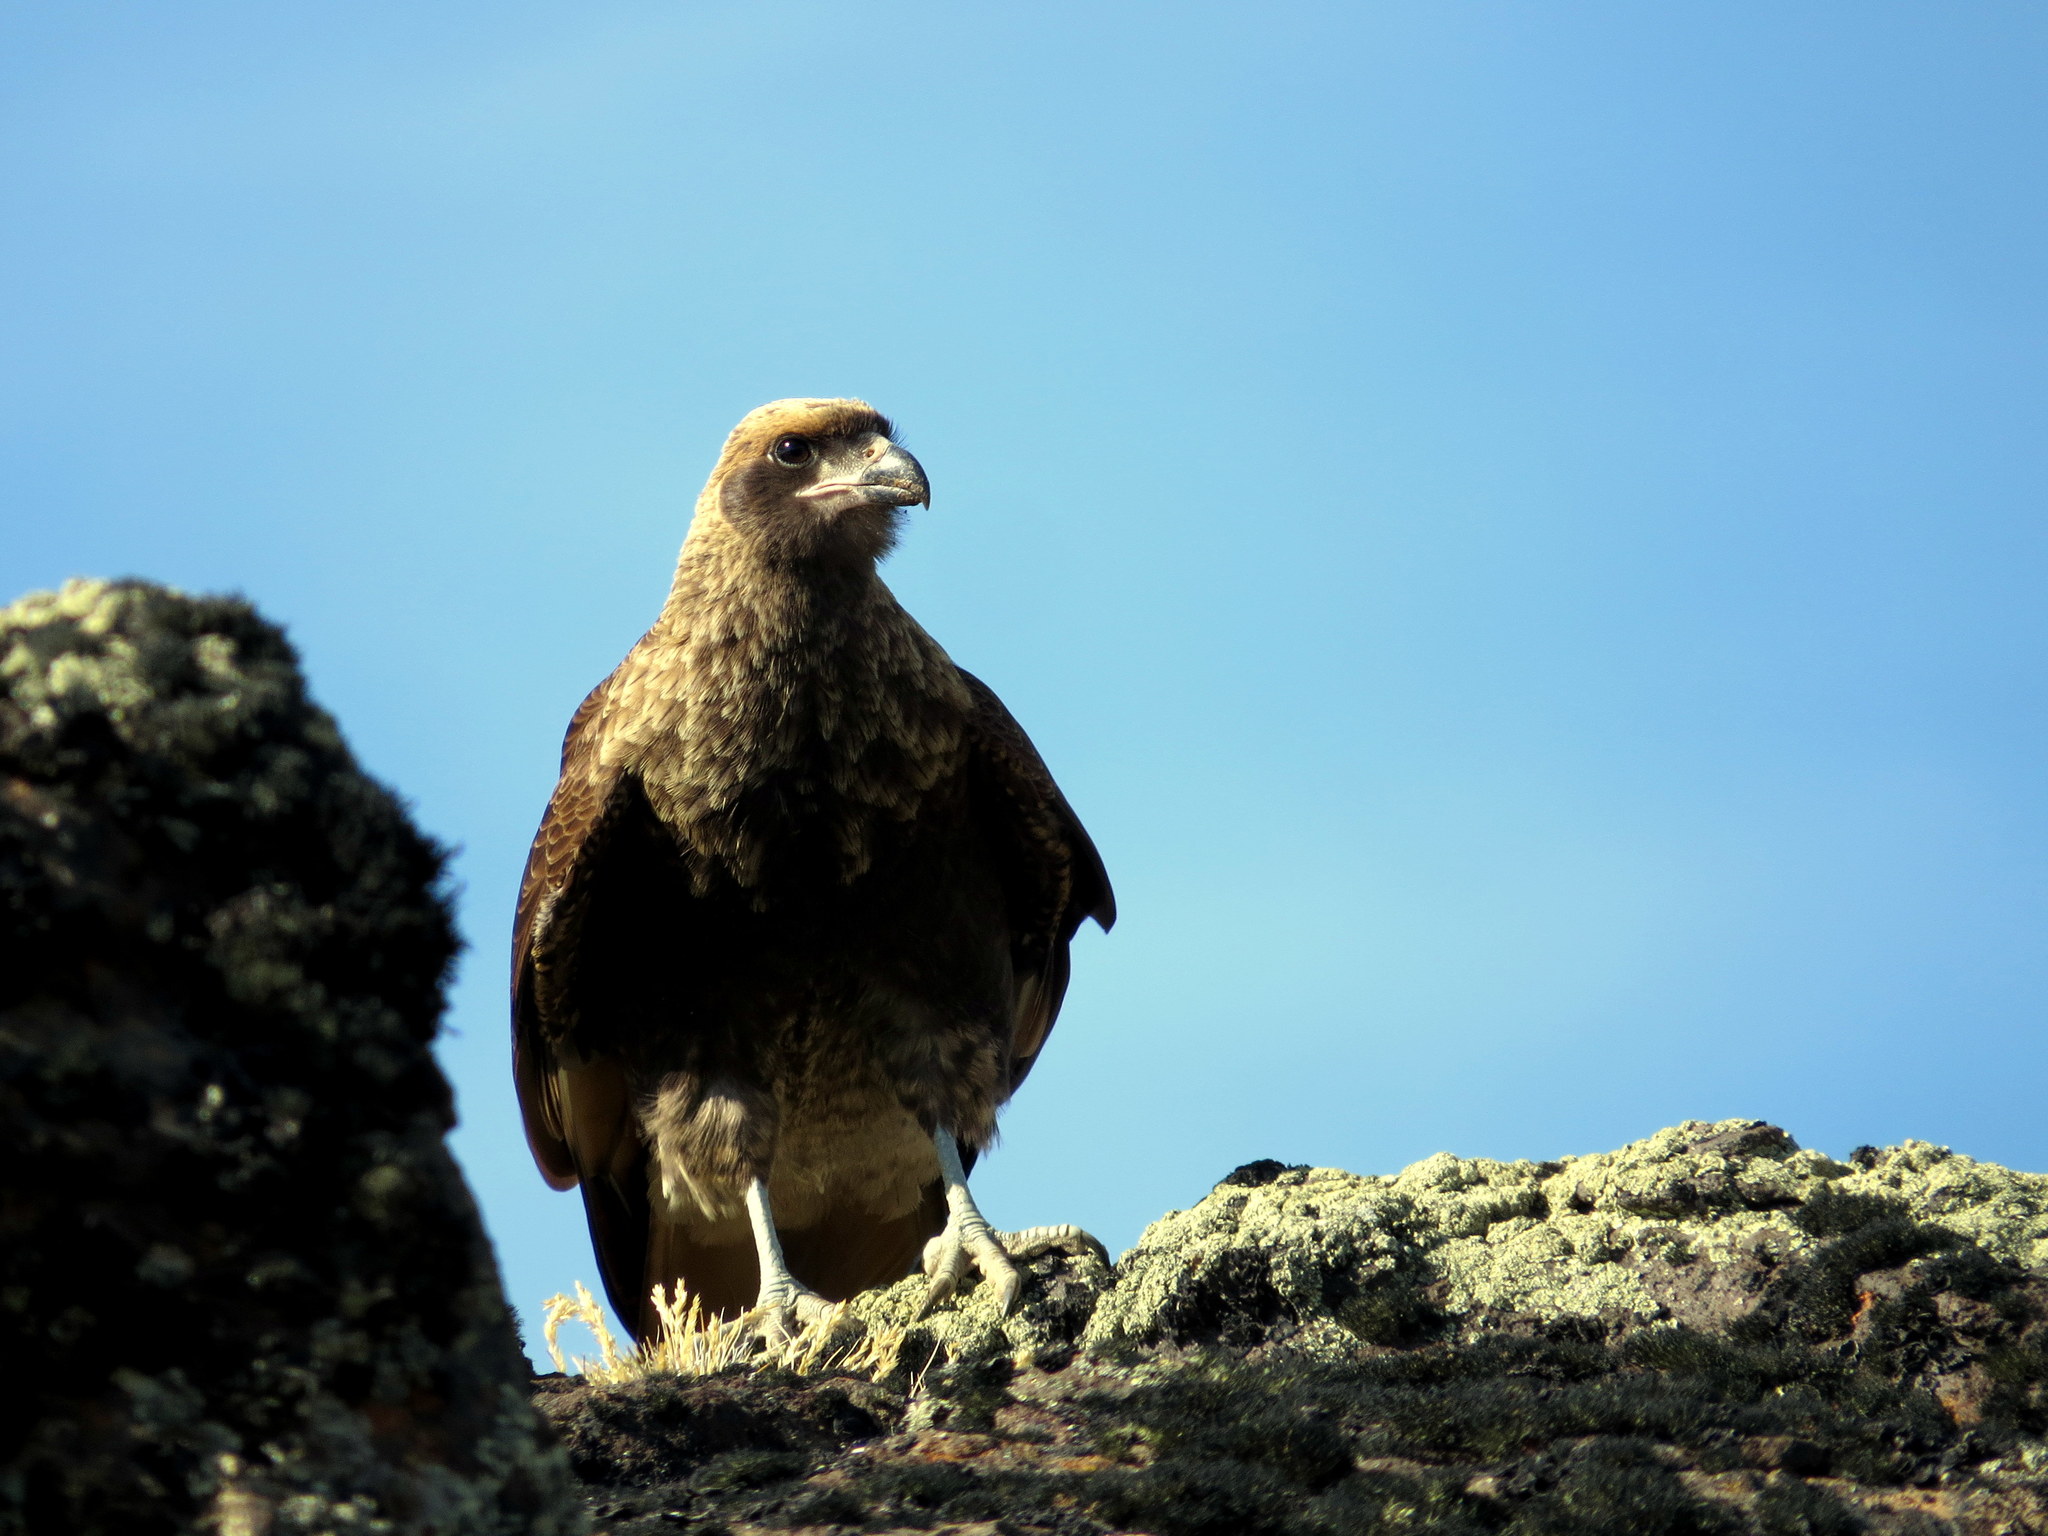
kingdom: Animalia
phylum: Chordata
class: Aves
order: Falconiformes
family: Falconidae
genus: Daptrius
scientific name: Daptrius
